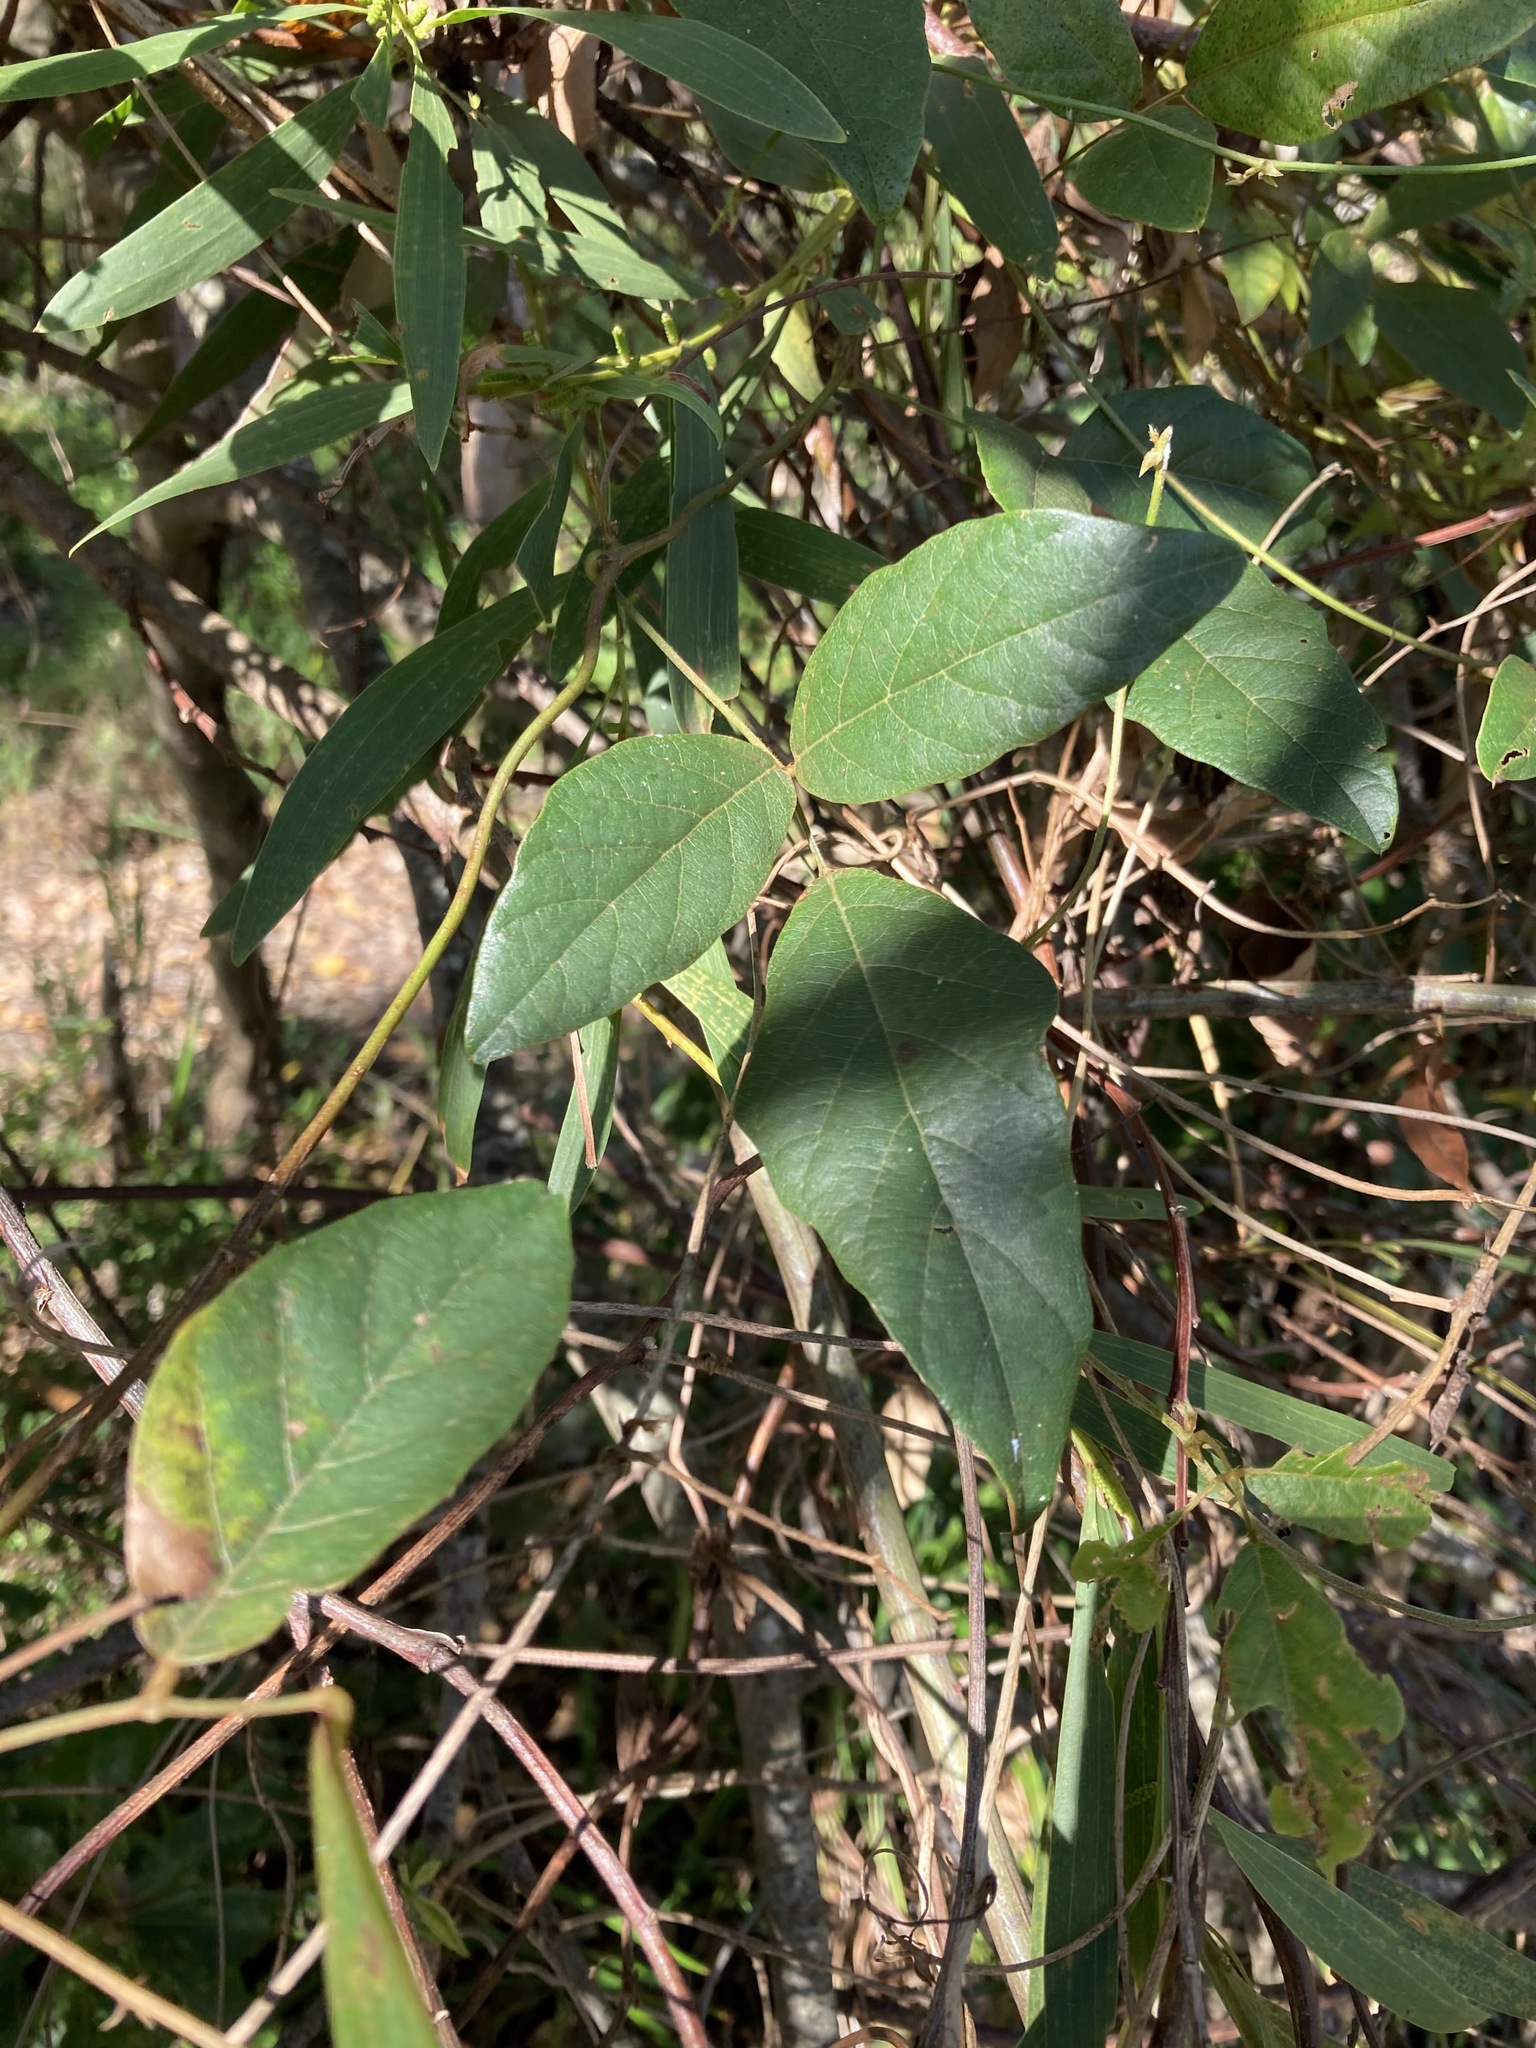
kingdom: Plantae
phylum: Tracheophyta
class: Magnoliopsida
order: Fabales
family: Fabaceae
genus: Kennedia
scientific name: Kennedia rubicunda
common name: Red kennedy-pea
